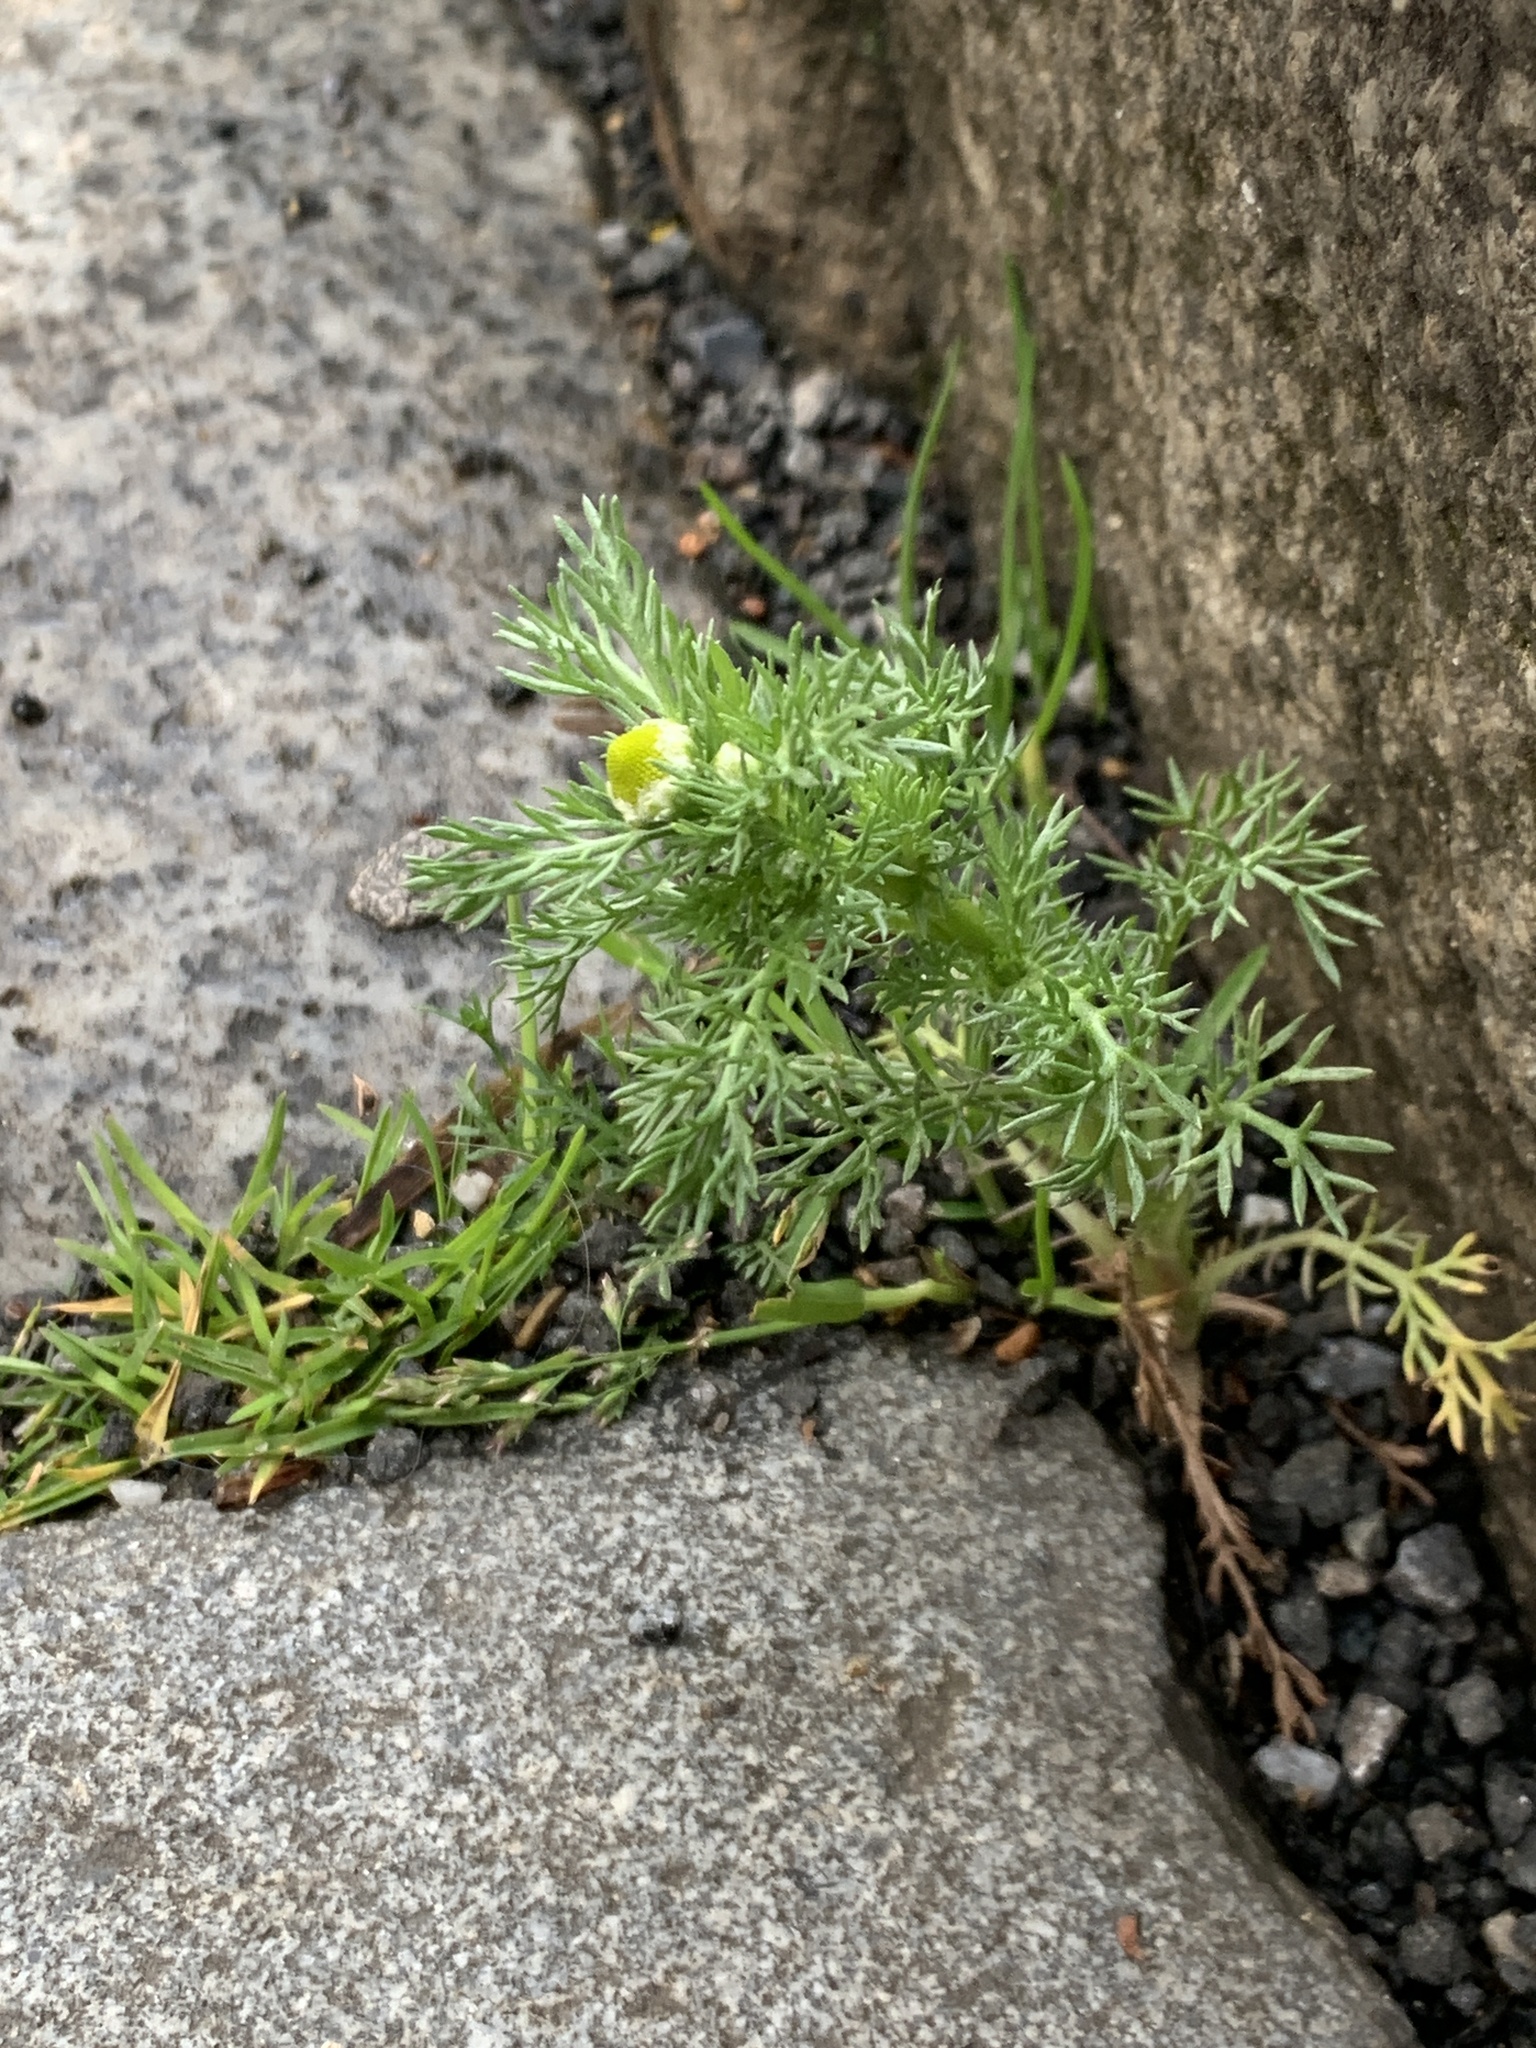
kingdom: Plantae
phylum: Tracheophyta
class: Magnoliopsida
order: Asterales
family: Asteraceae
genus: Matricaria
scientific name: Matricaria discoidea
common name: Disc mayweed
